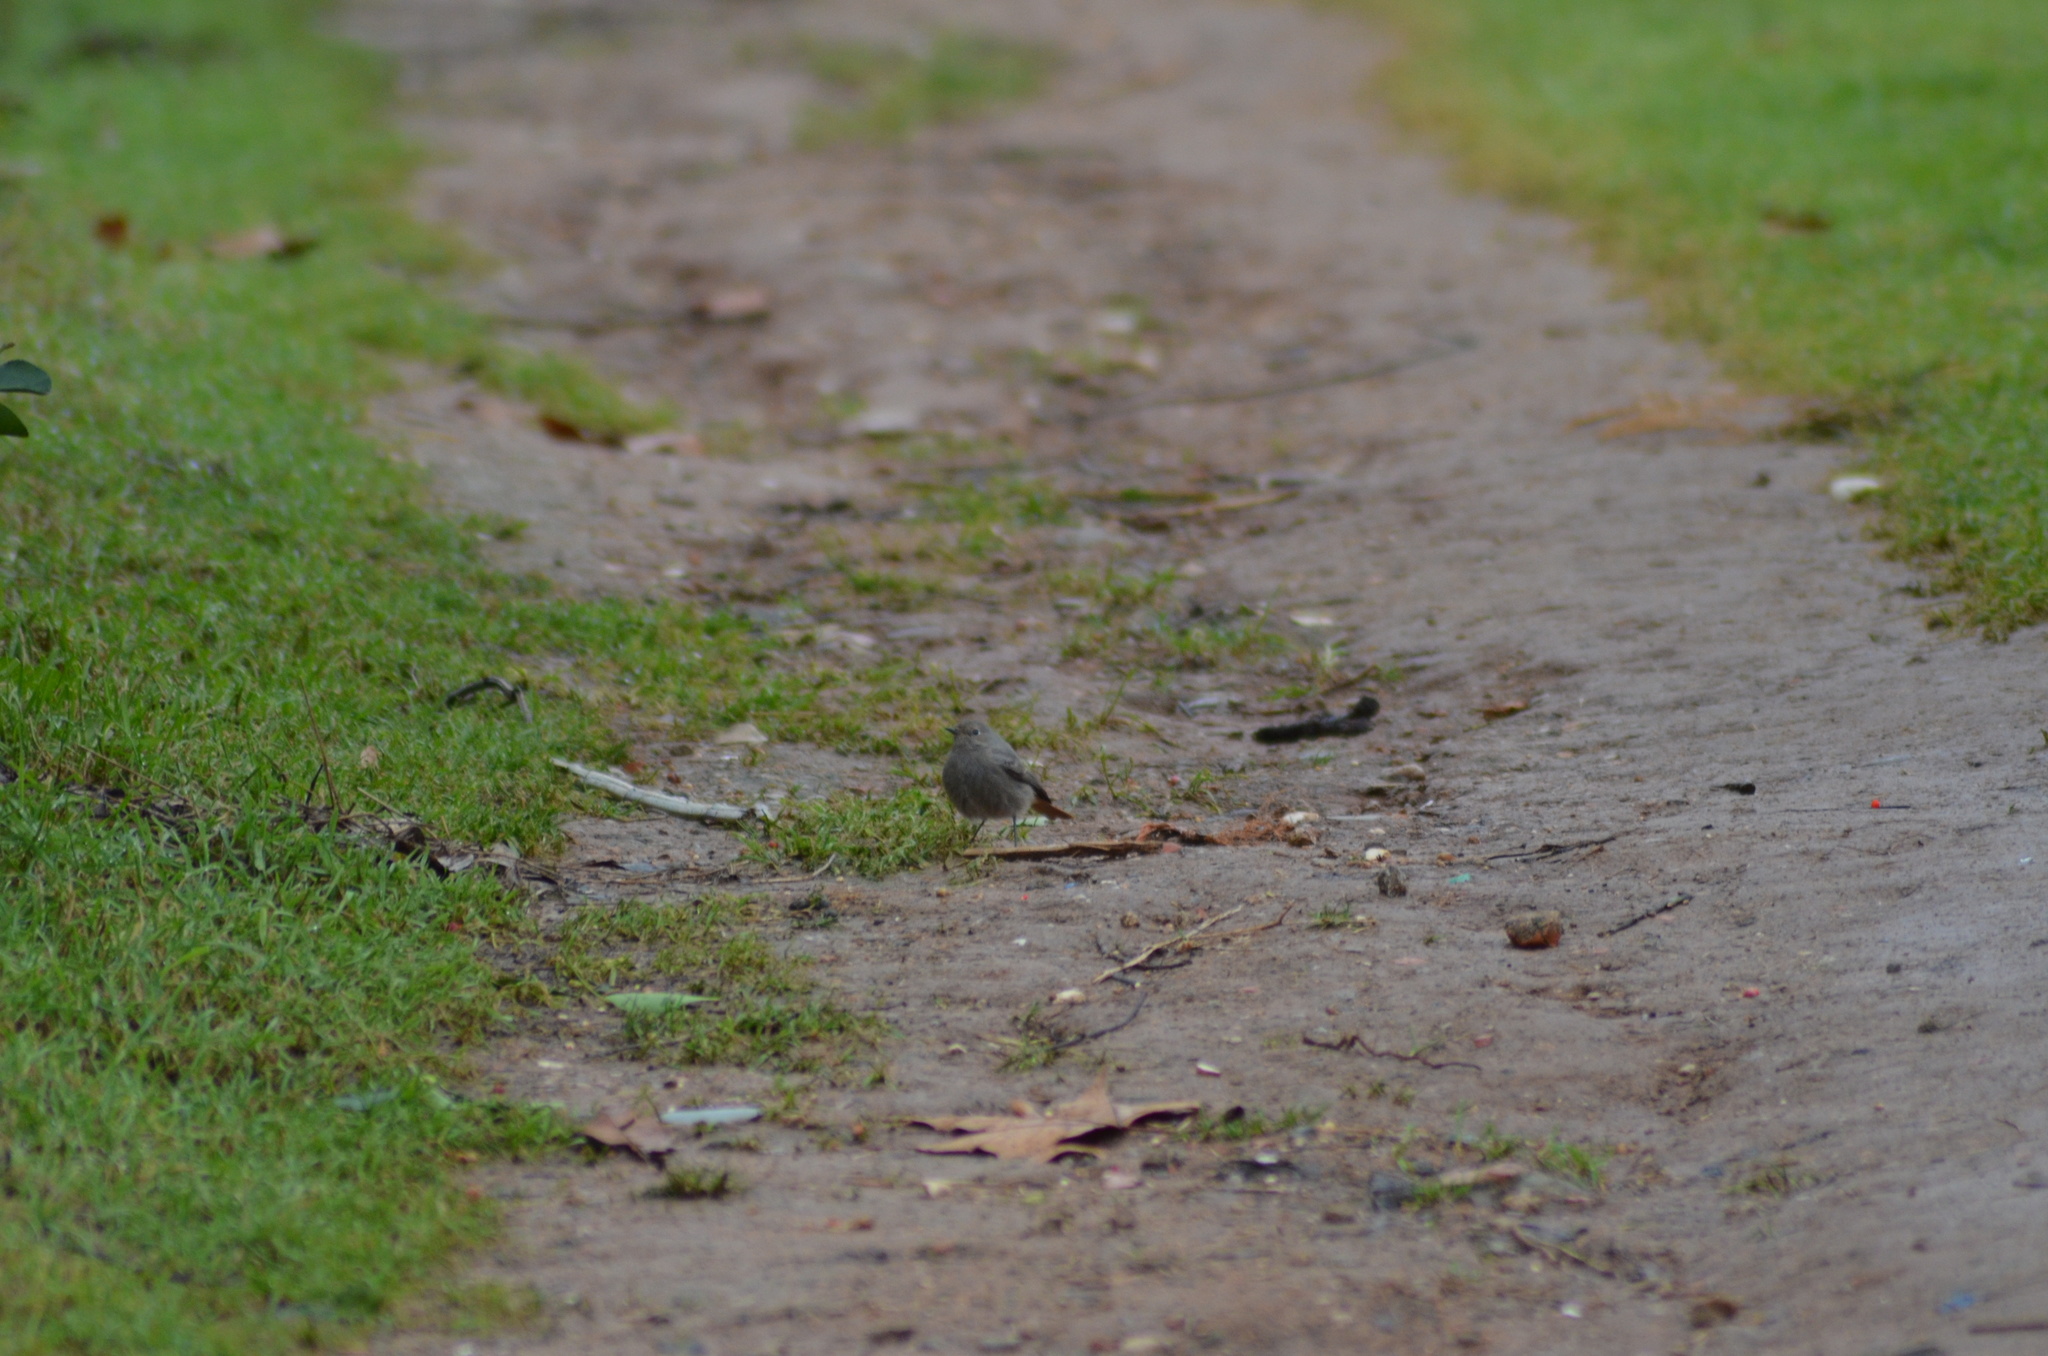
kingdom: Animalia
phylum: Chordata
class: Aves
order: Passeriformes
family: Muscicapidae
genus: Phoenicurus
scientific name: Phoenicurus ochruros
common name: Black redstart
